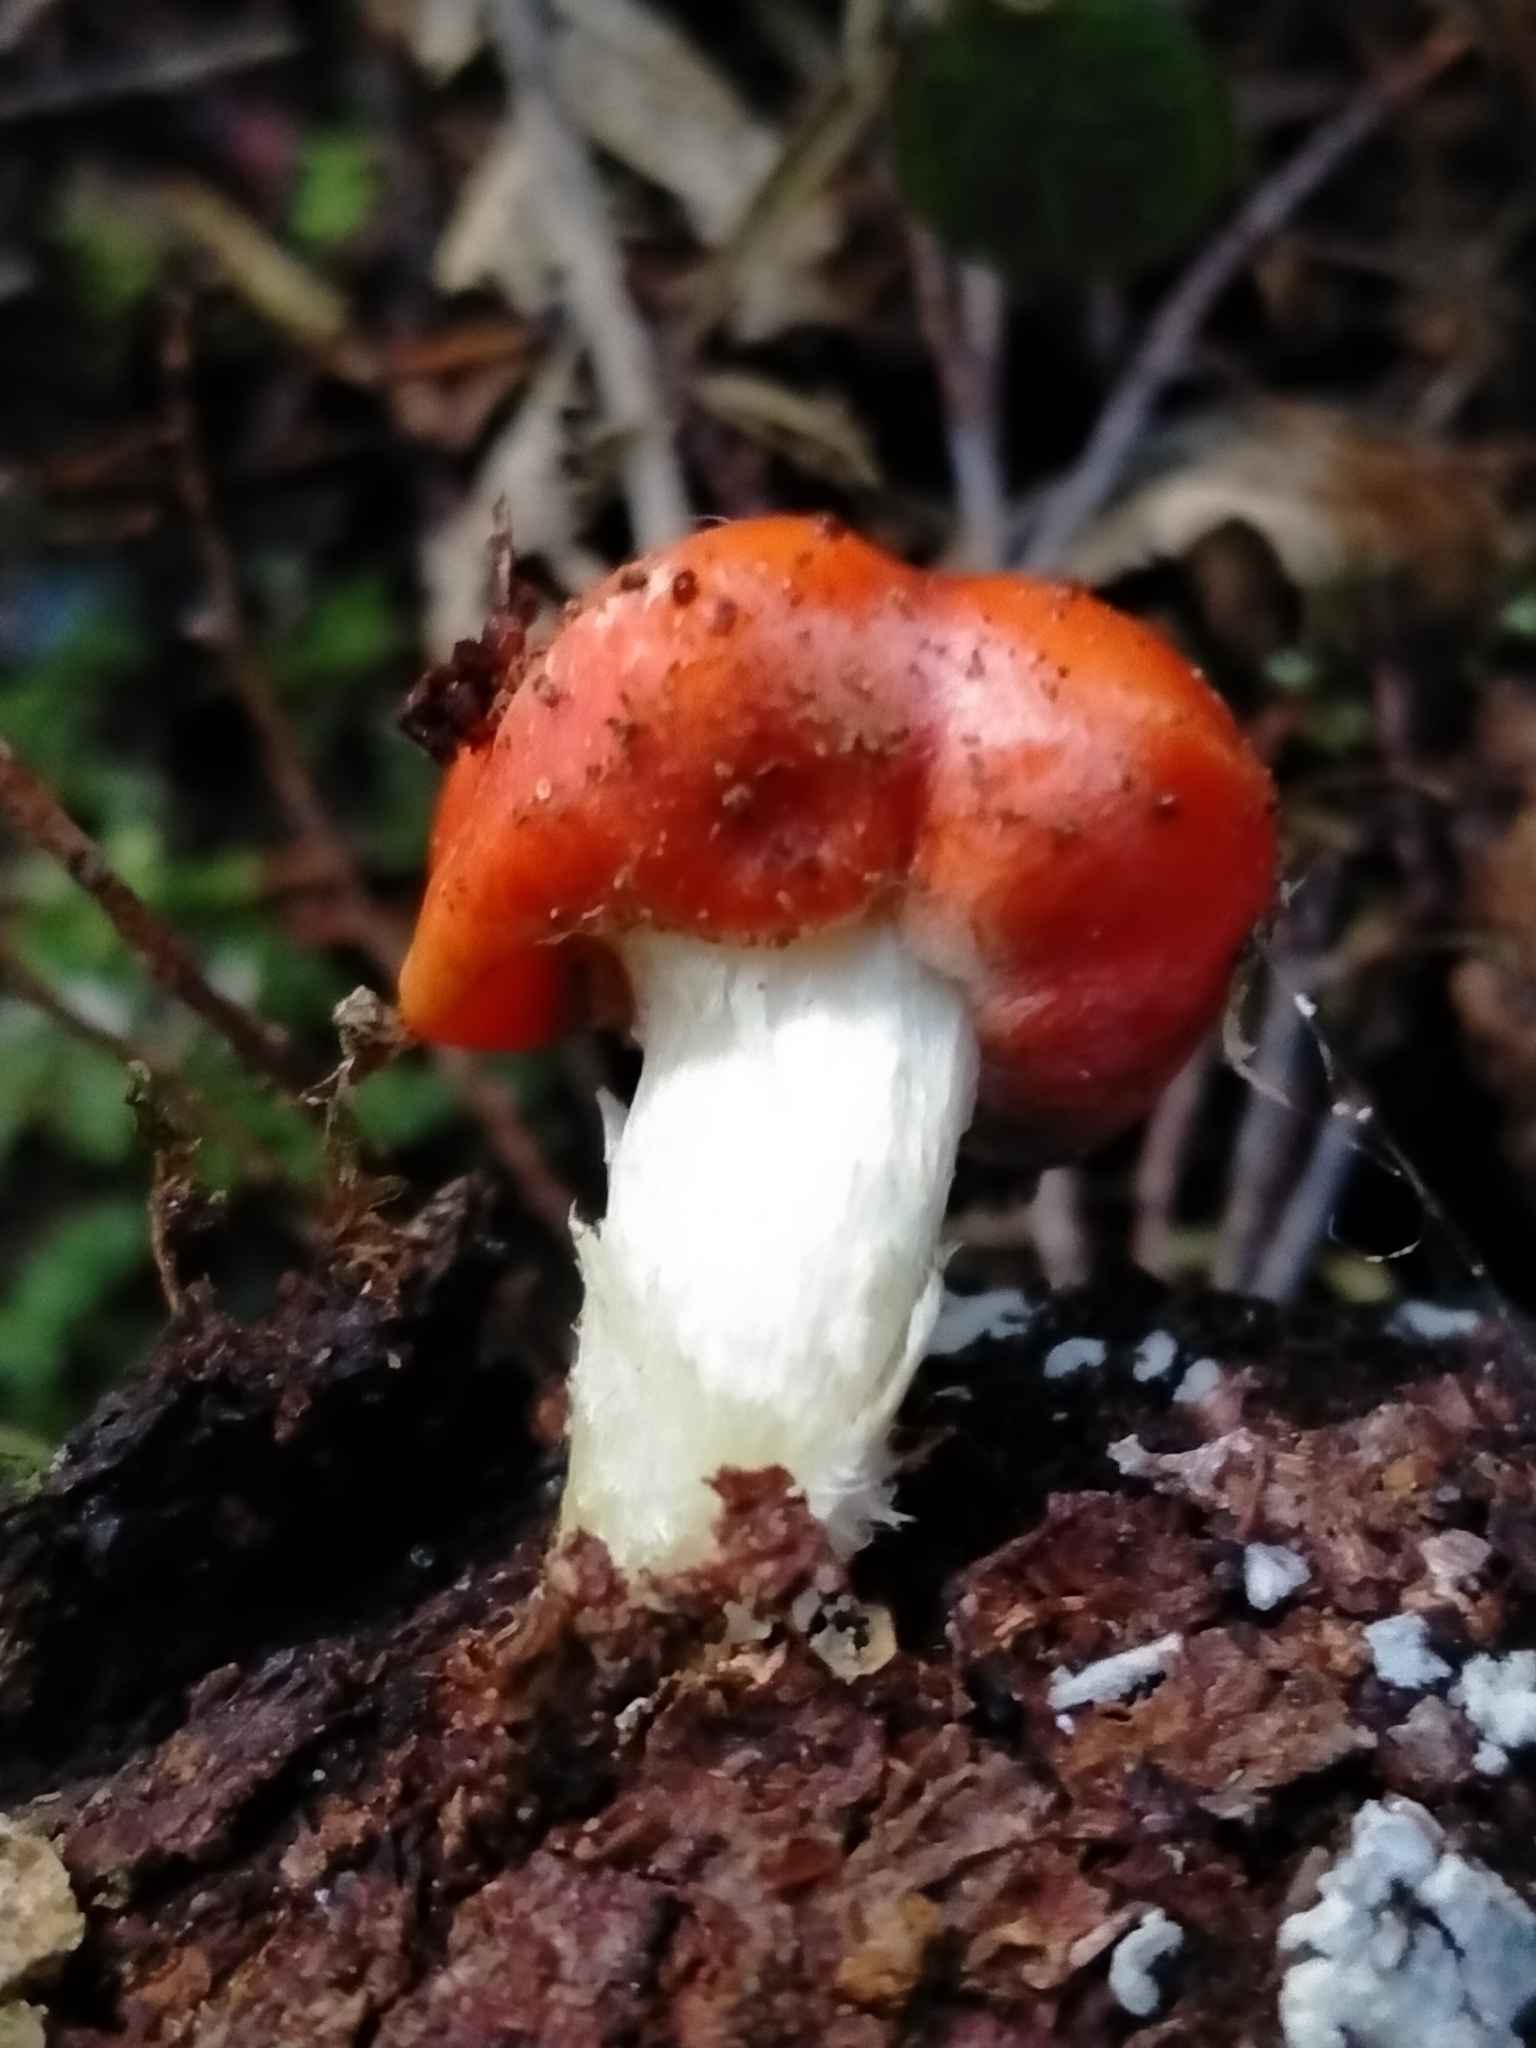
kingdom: Fungi
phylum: Basidiomycota
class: Agaricomycetes
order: Agaricales
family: Strophariaceae
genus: Leratiomyces
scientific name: Leratiomyces erythrocephalus
